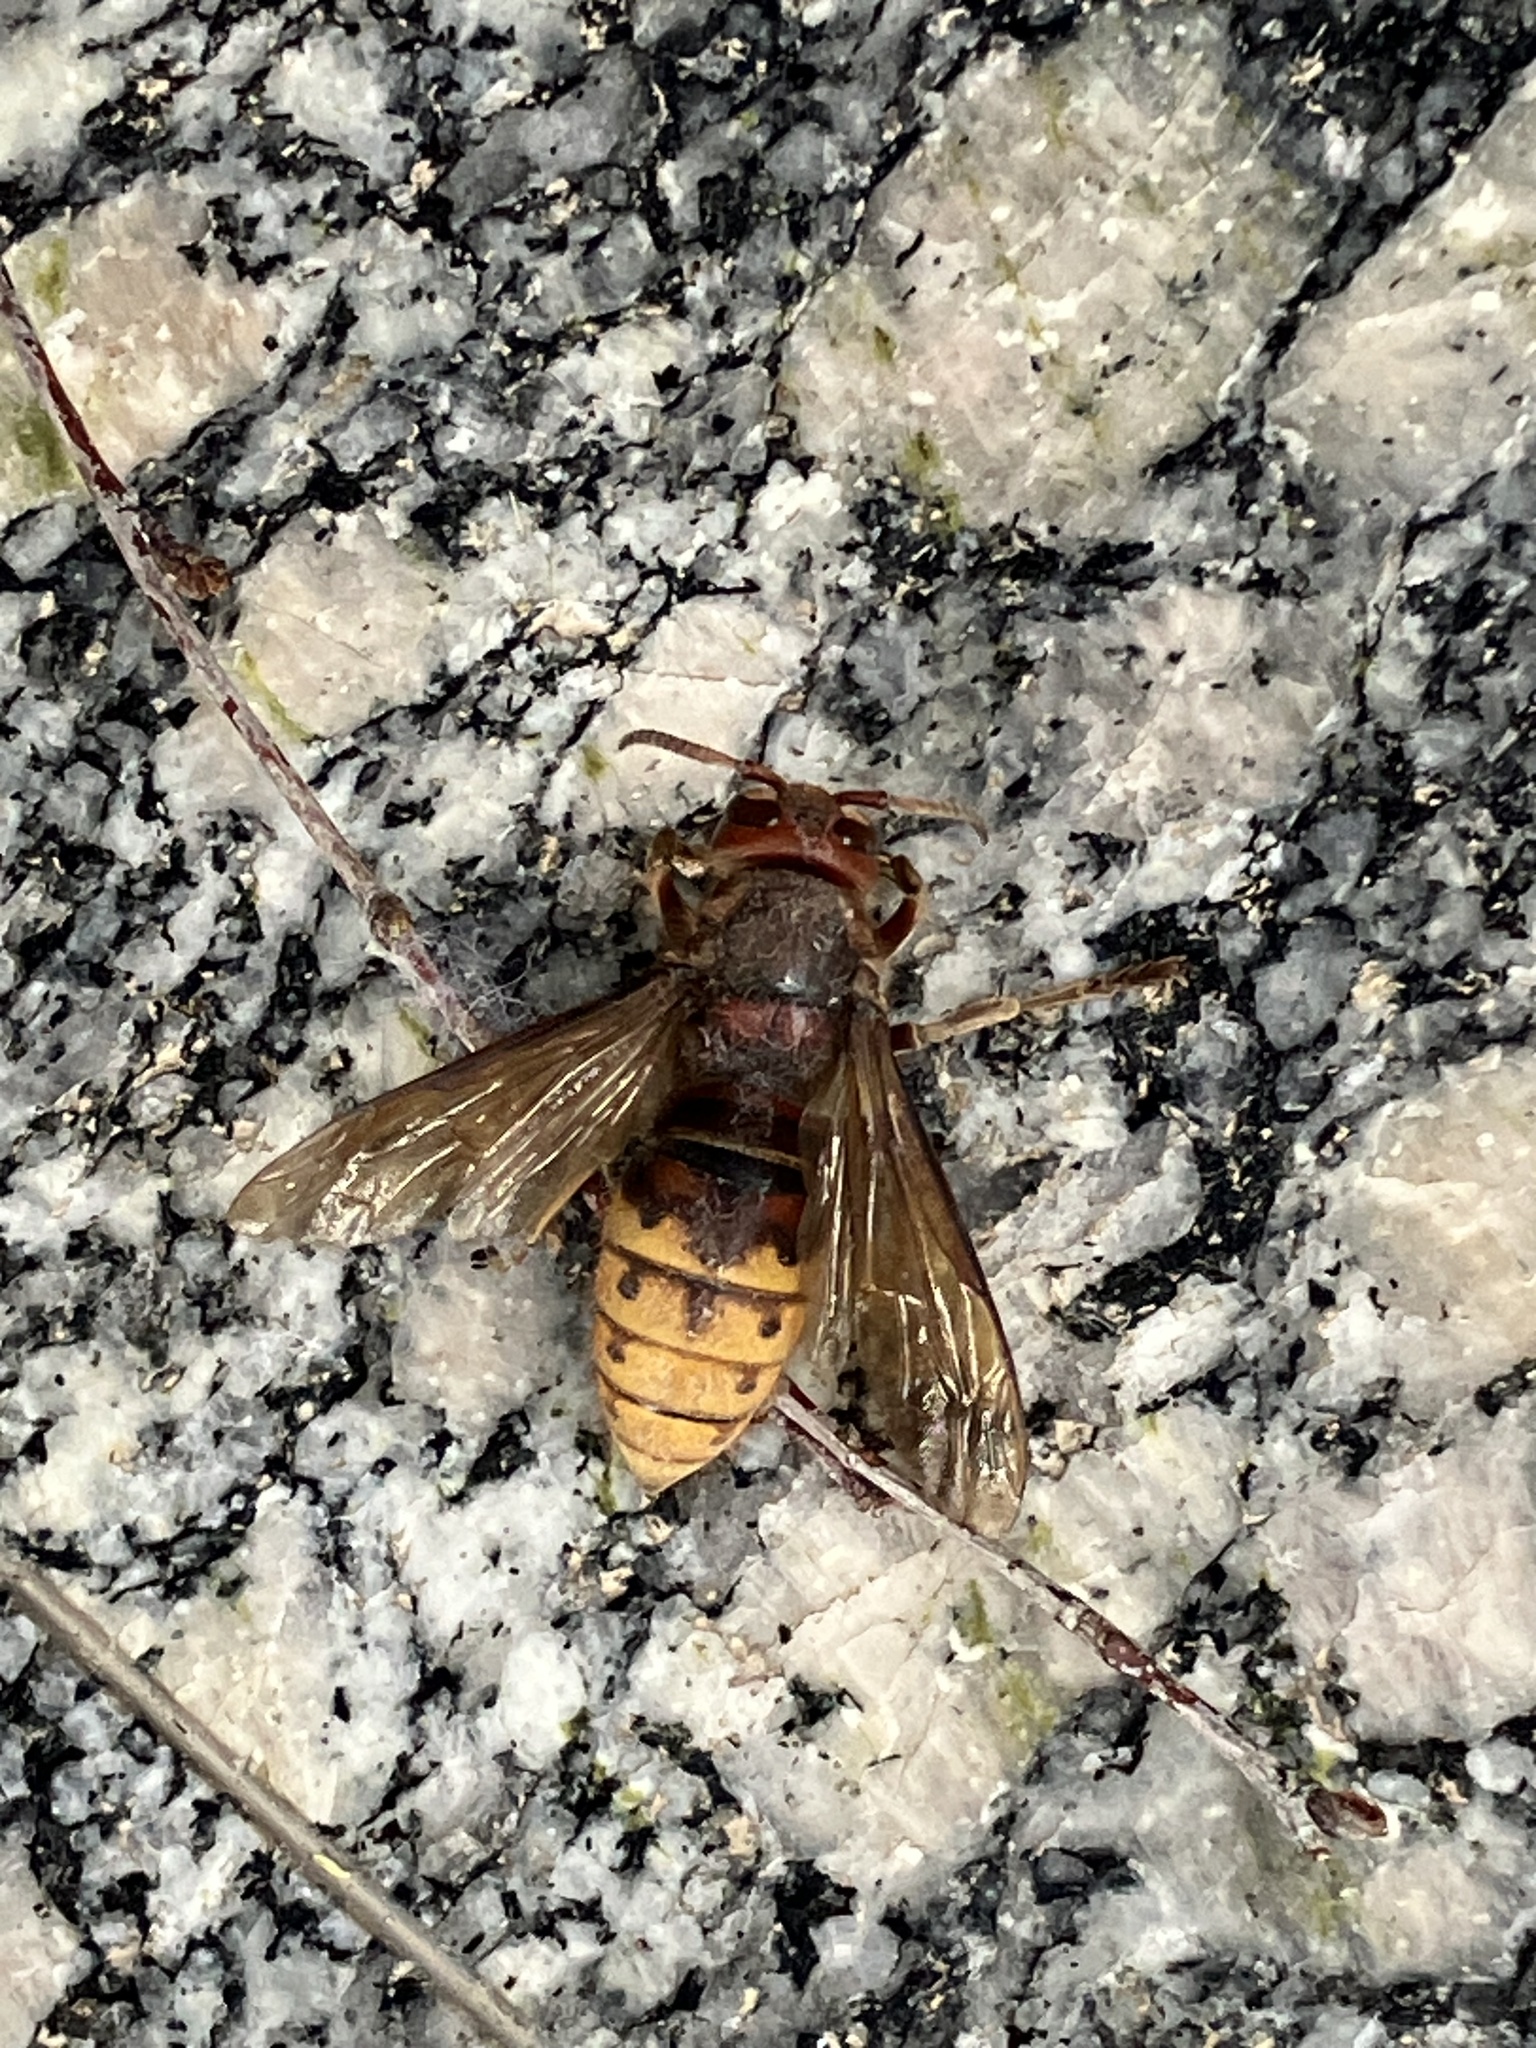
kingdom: Animalia
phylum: Arthropoda
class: Insecta
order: Hymenoptera
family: Vespidae
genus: Vespa
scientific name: Vespa crabro
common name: Hornet
